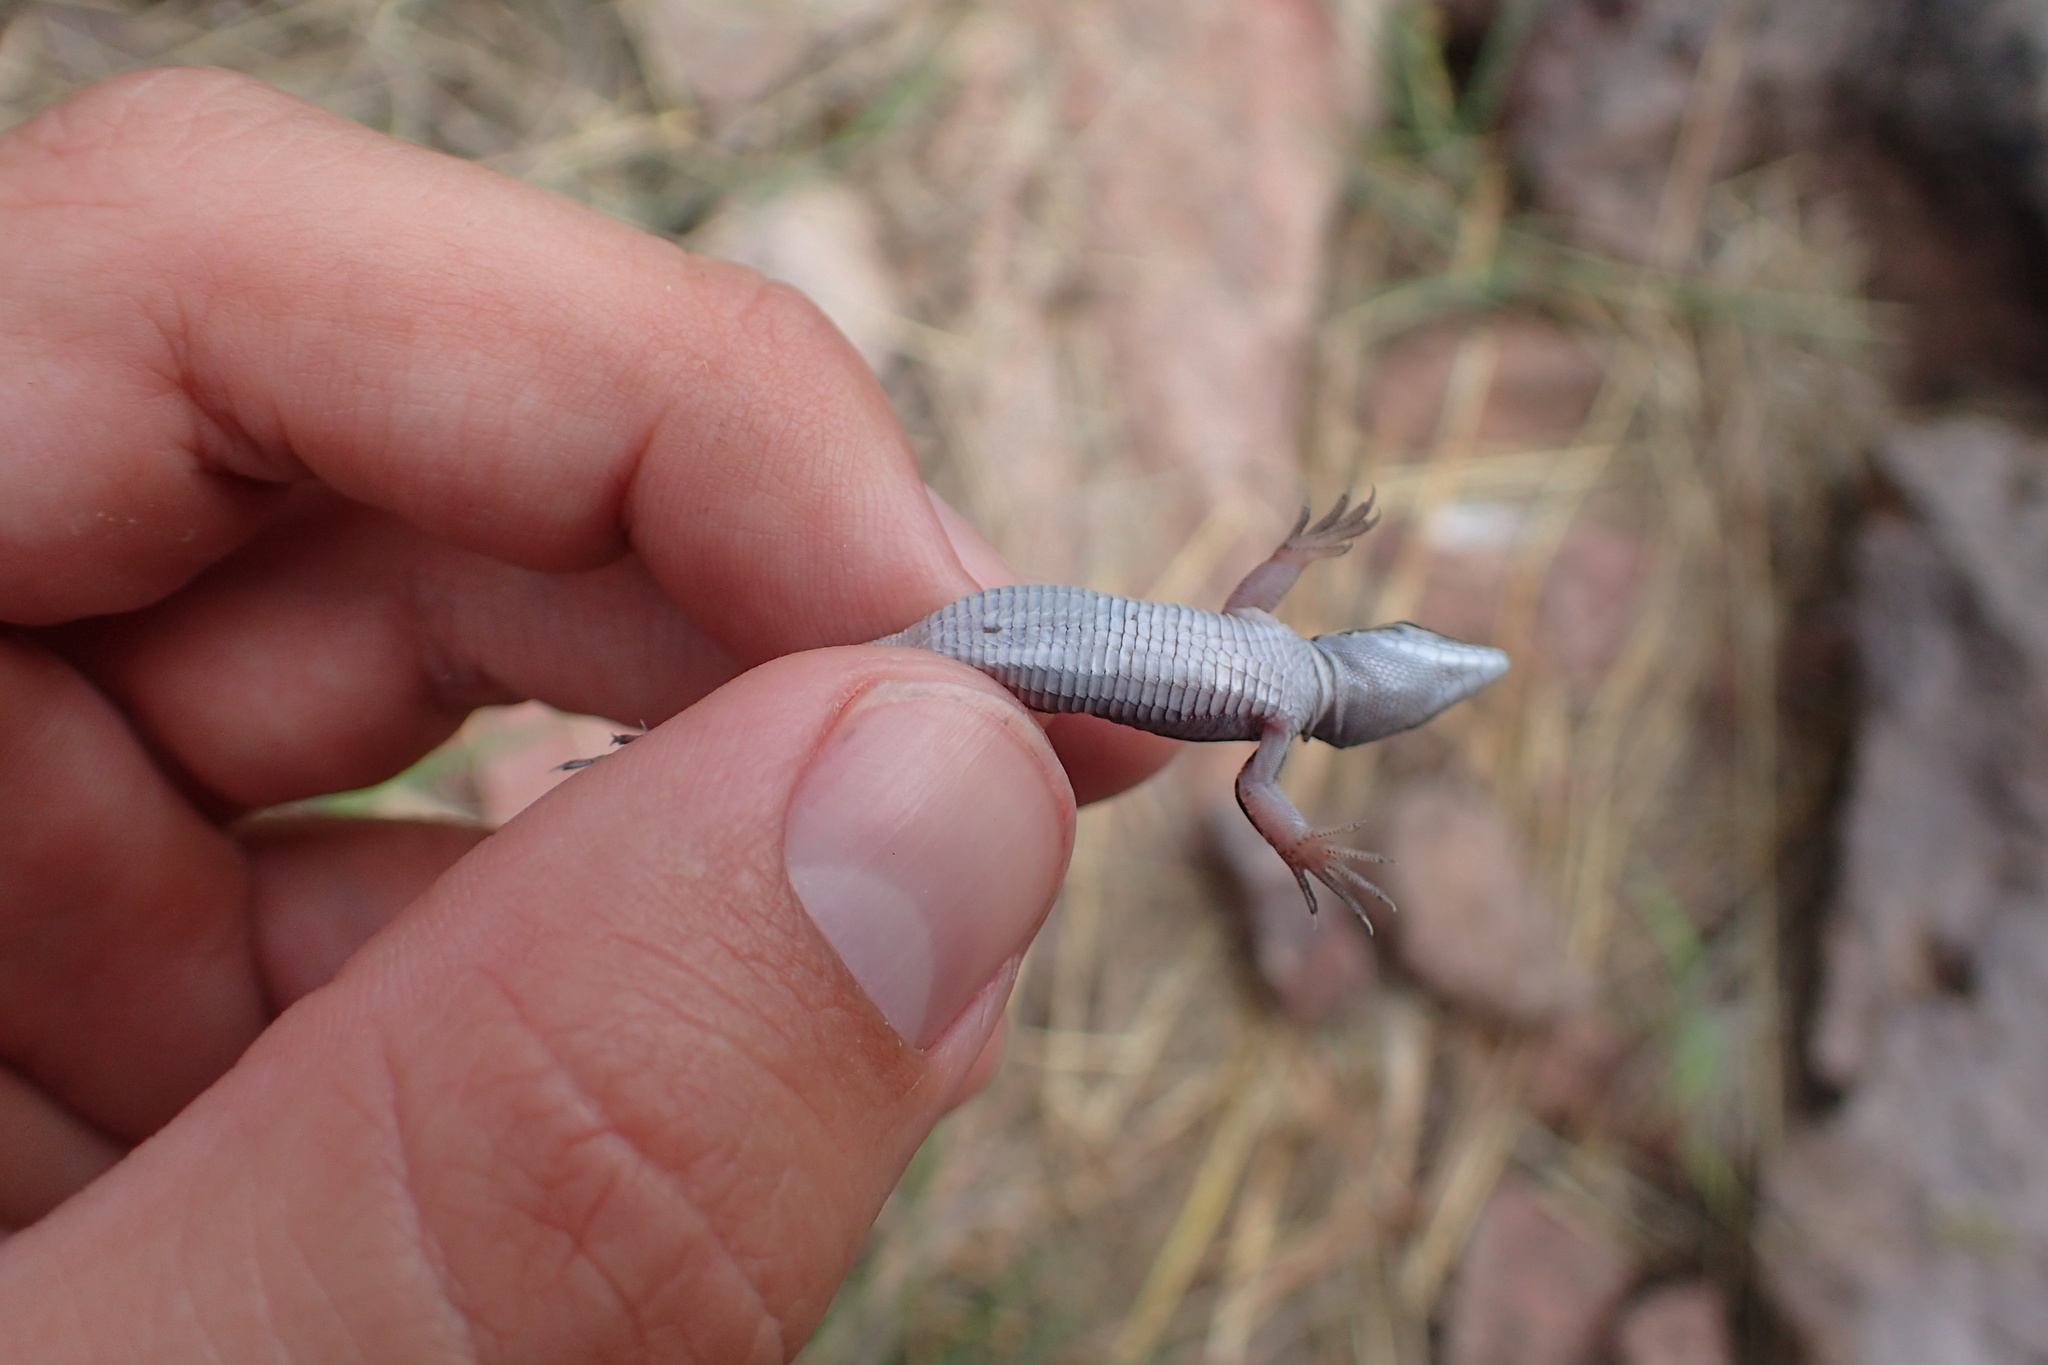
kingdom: Animalia
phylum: Chordata
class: Squamata
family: Teiidae
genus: Aspidoscelis
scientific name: Aspidoscelis exsanguis
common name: Chihuahuan spotted whiptail
